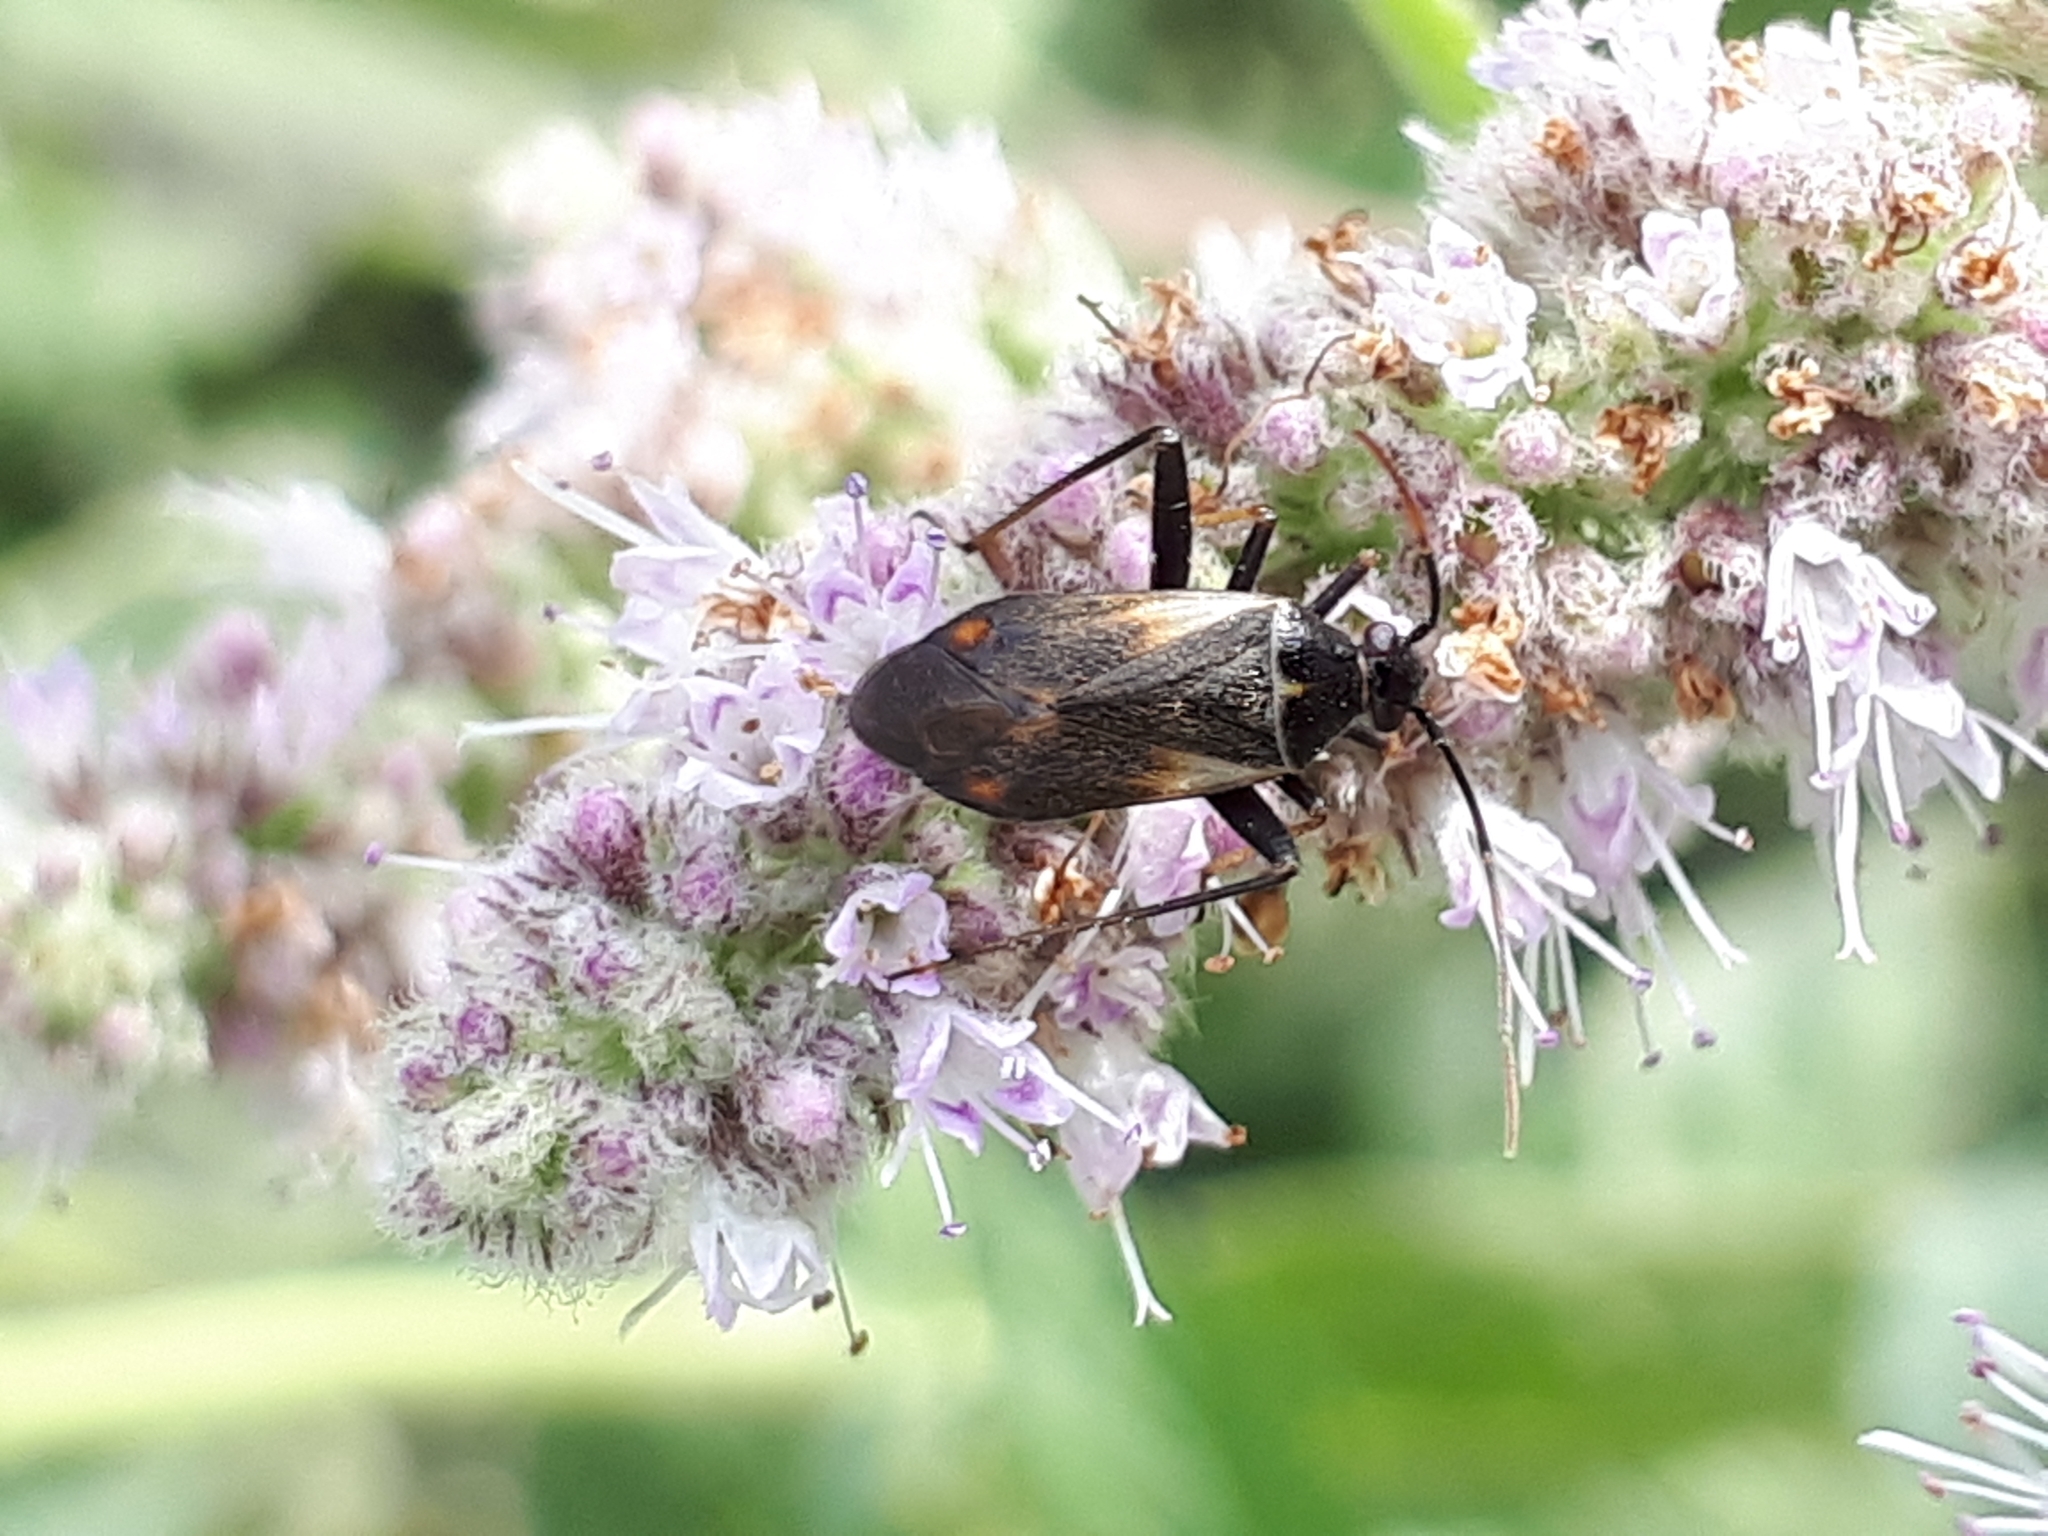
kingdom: Animalia
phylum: Arthropoda
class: Insecta
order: Hemiptera
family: Miridae
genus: Adelphocoris
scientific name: Adelphocoris seticornis
